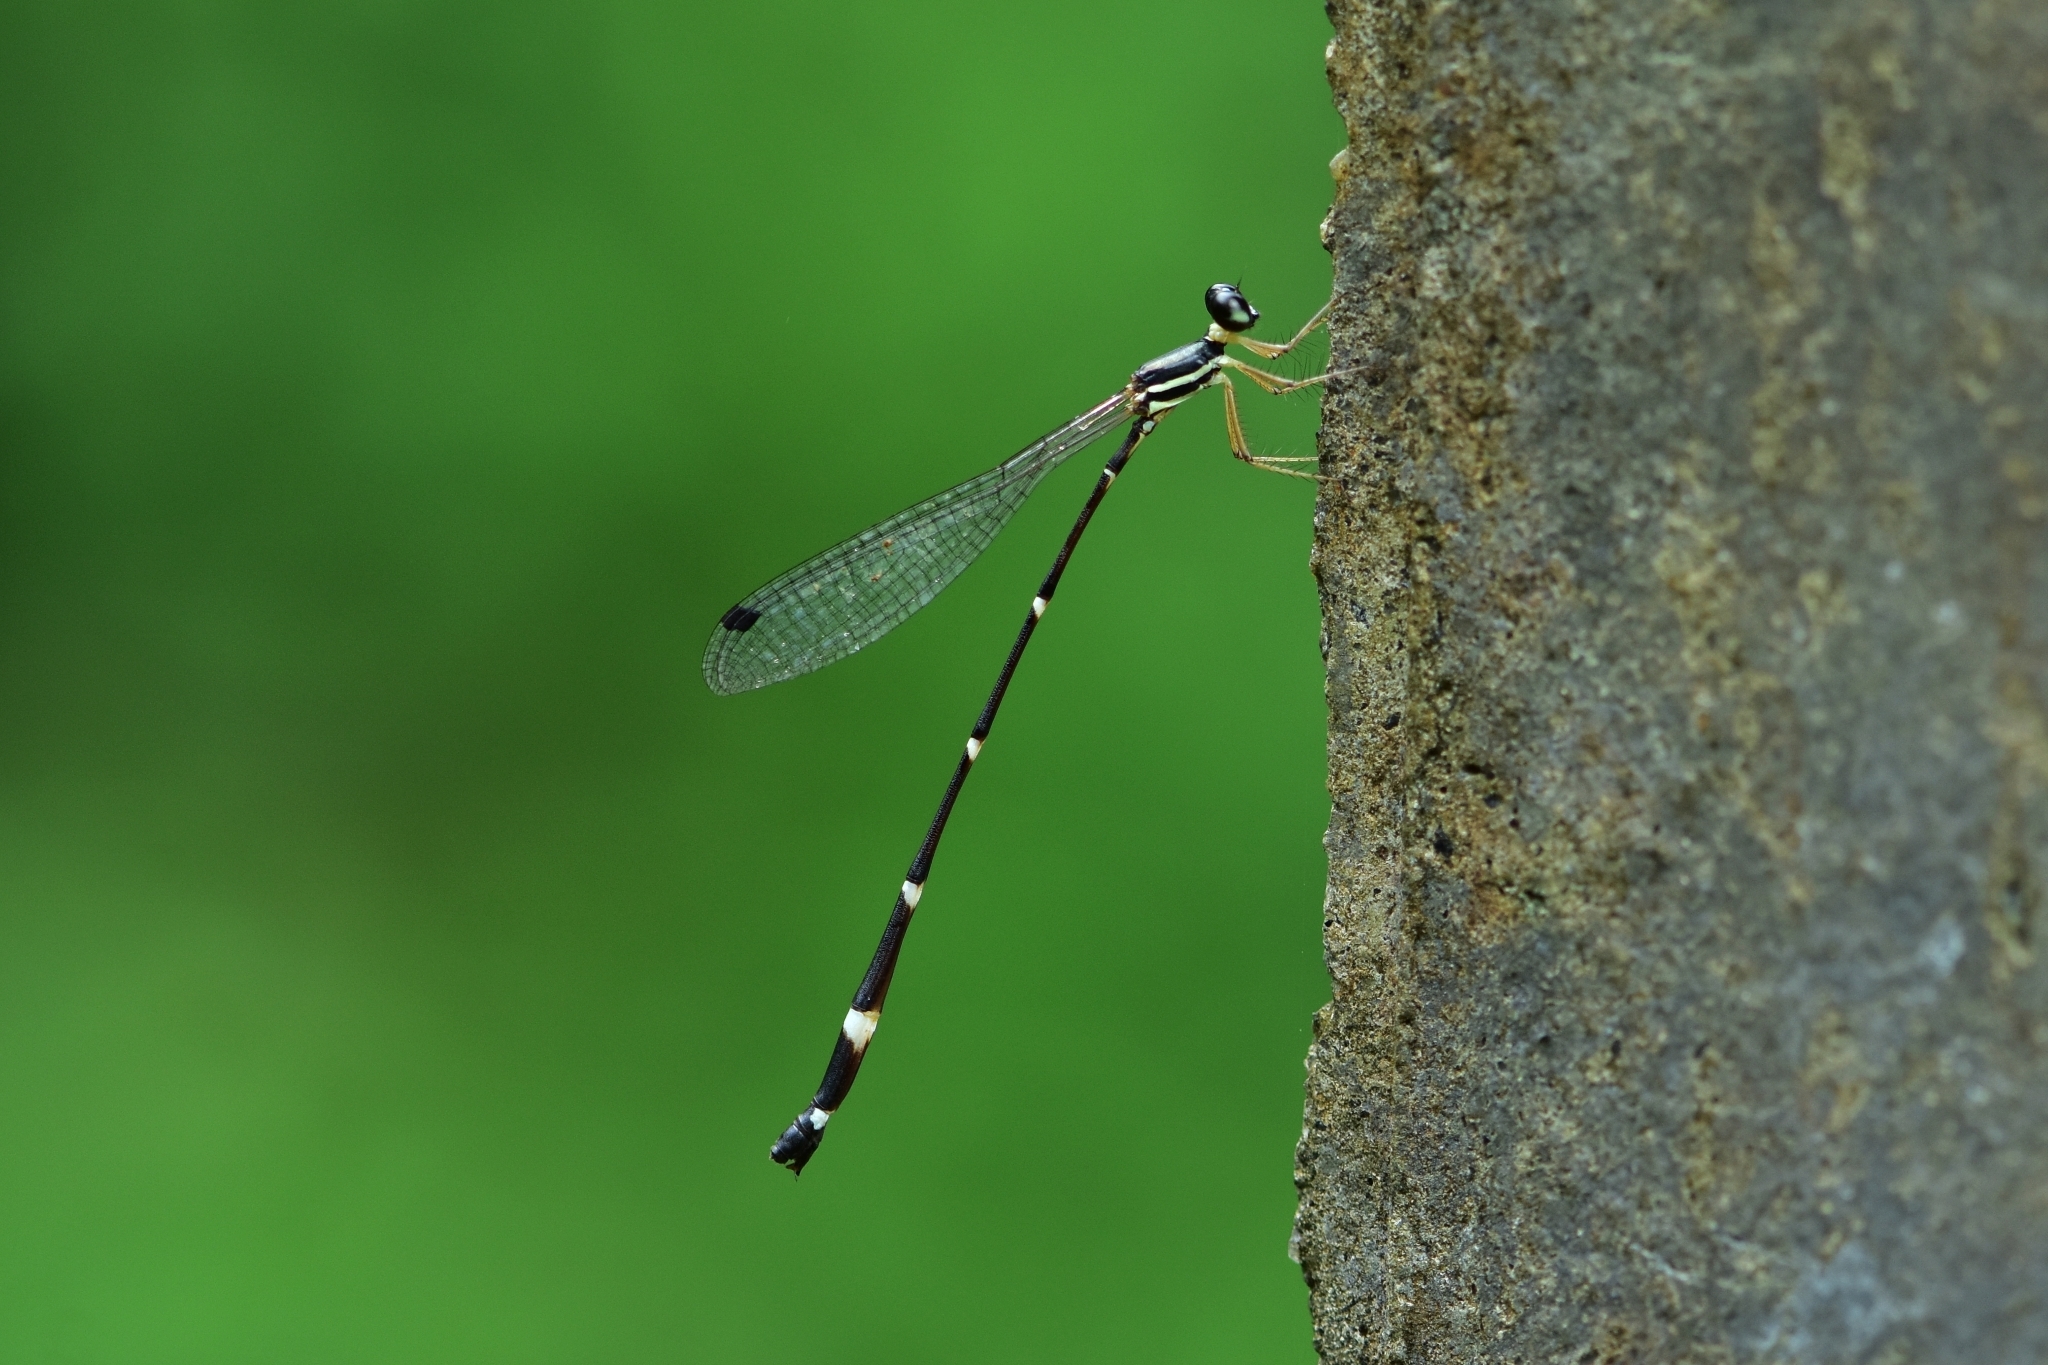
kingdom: Animalia
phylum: Arthropoda
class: Insecta
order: Odonata
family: Platystictidae
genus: Protosticta
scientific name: Protosticta gravelyi
